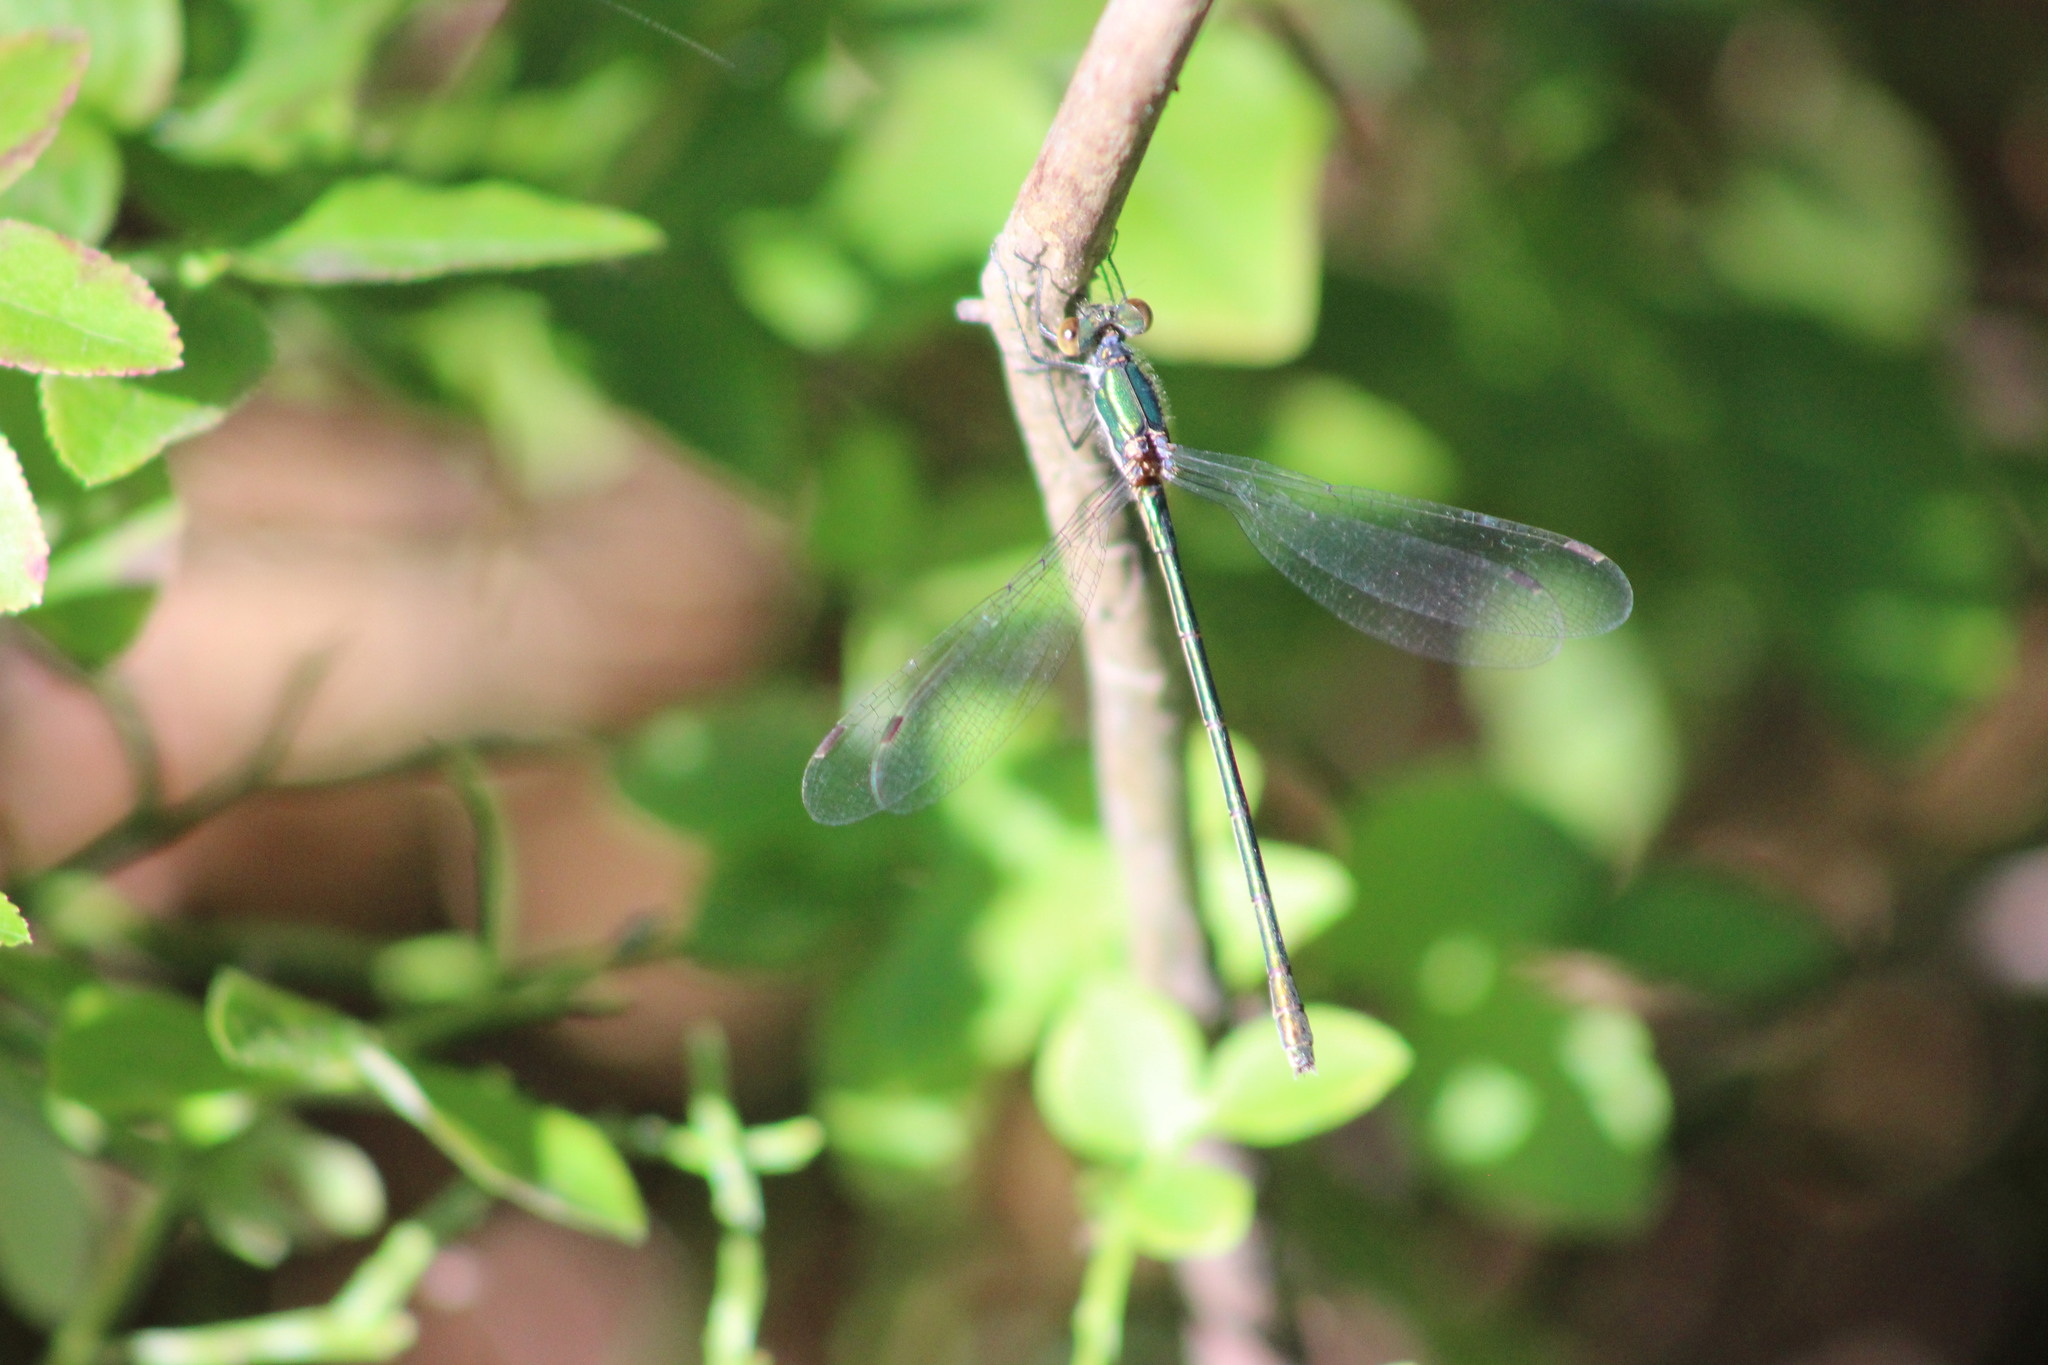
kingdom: Animalia
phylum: Arthropoda
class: Insecta
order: Odonata
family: Lestidae
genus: Lestes
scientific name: Lestes dryas
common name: Scarce emerald damselfly
